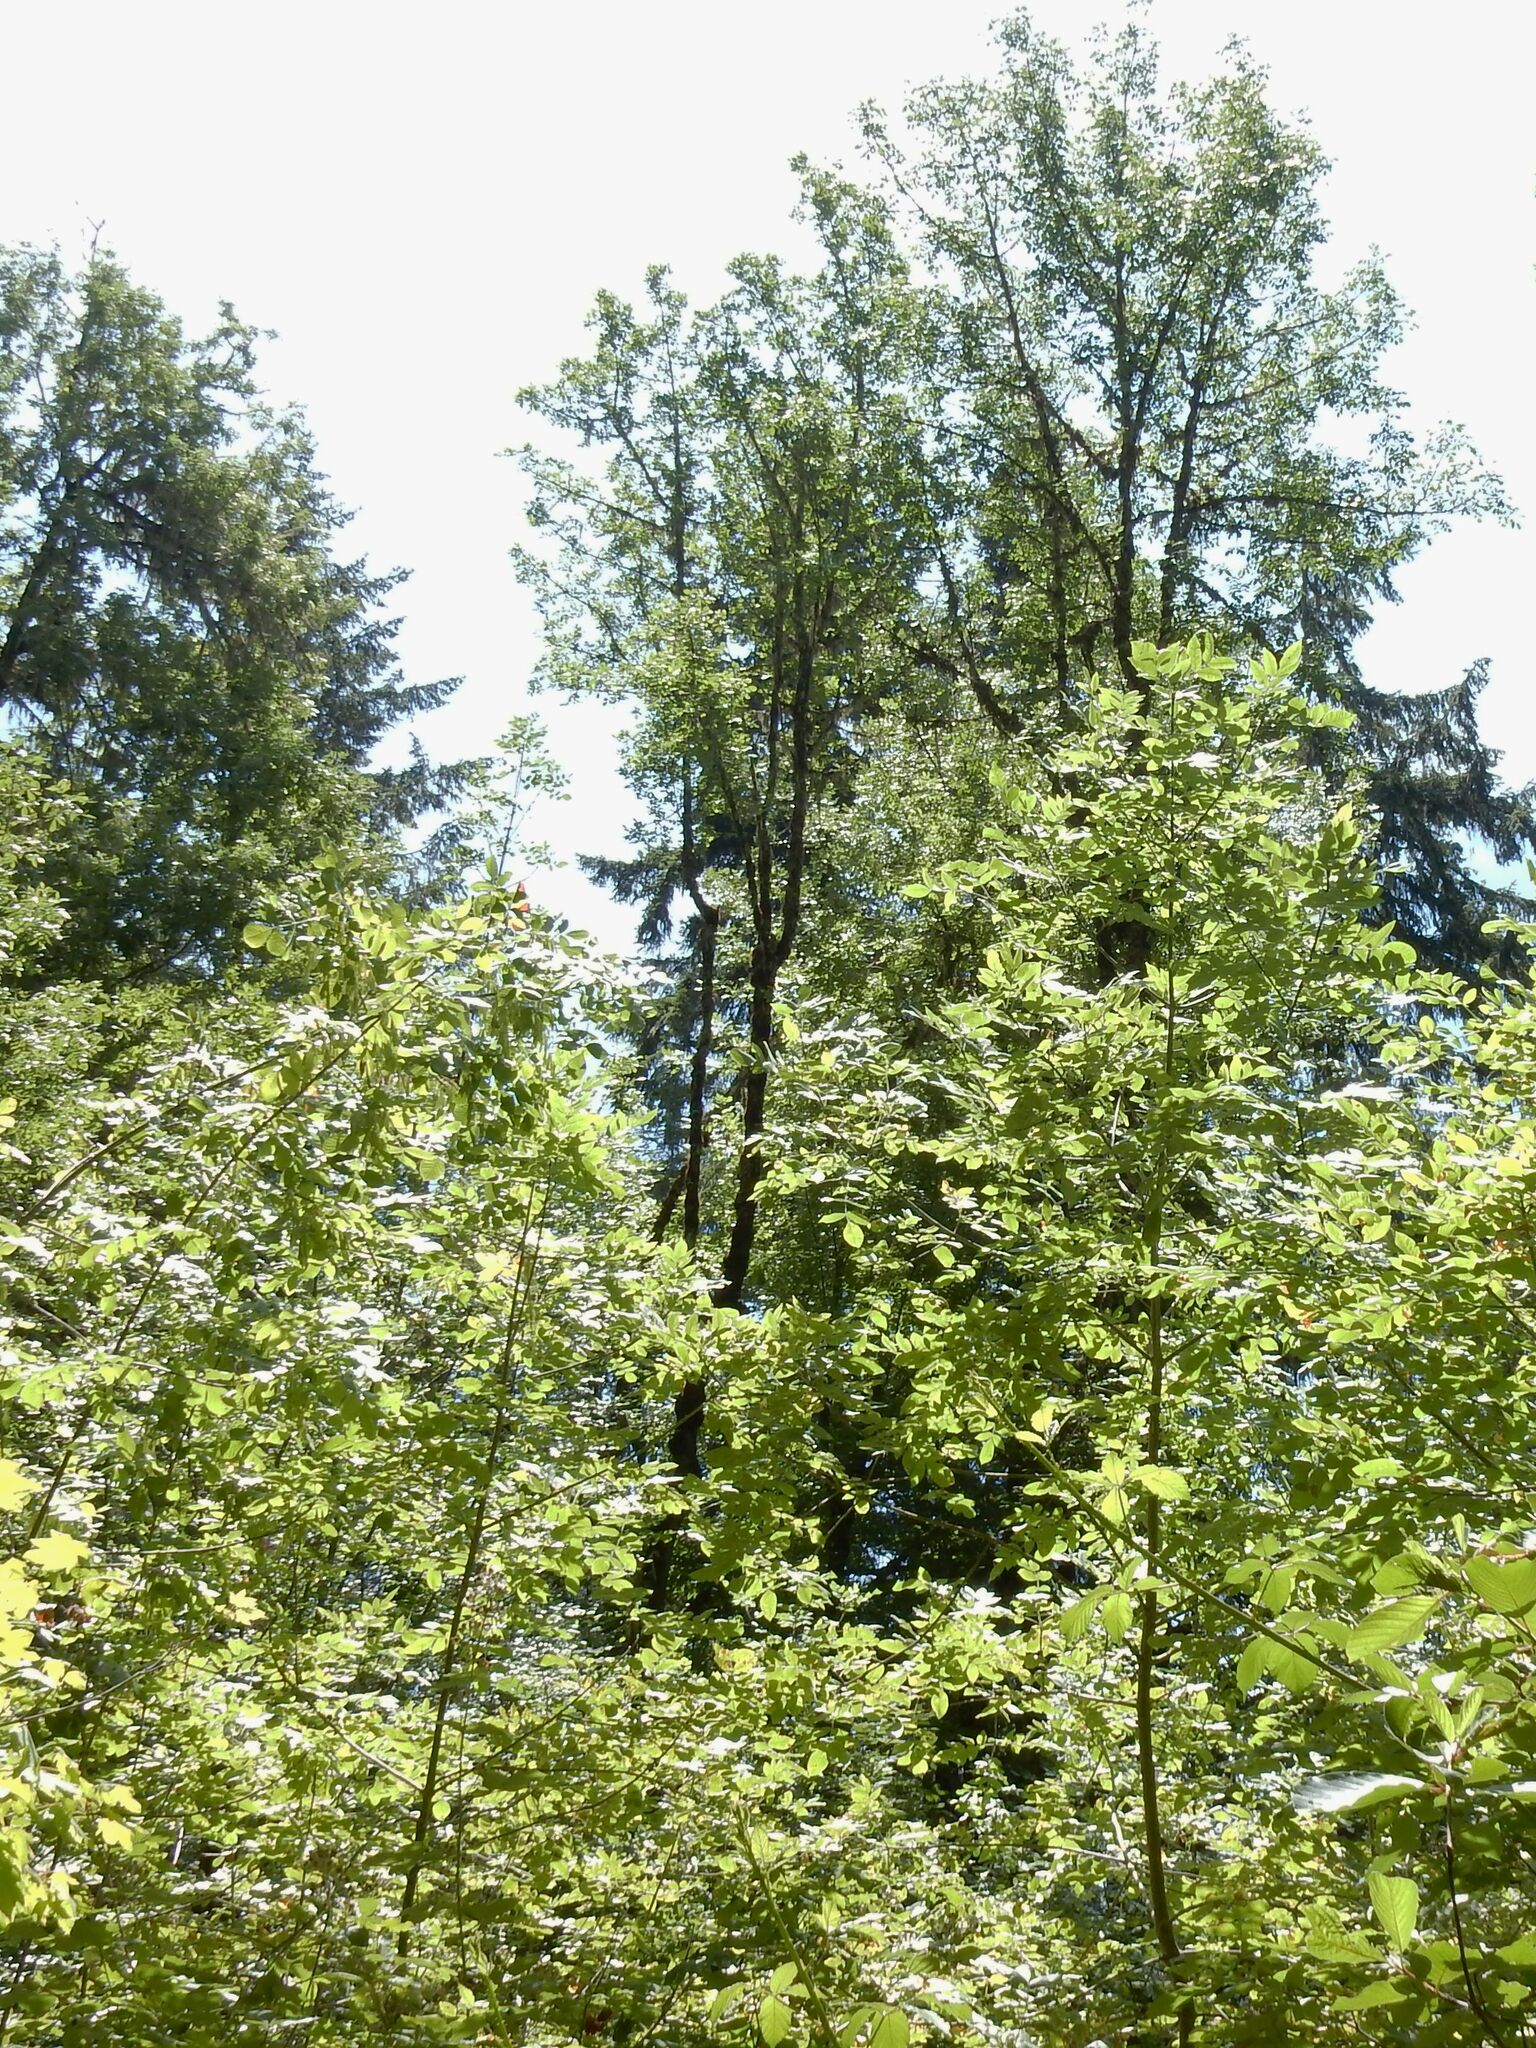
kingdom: Plantae
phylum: Tracheophyta
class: Magnoliopsida
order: Lamiales
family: Oleaceae
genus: Fraxinus
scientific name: Fraxinus latifolia
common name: Oregon ash
